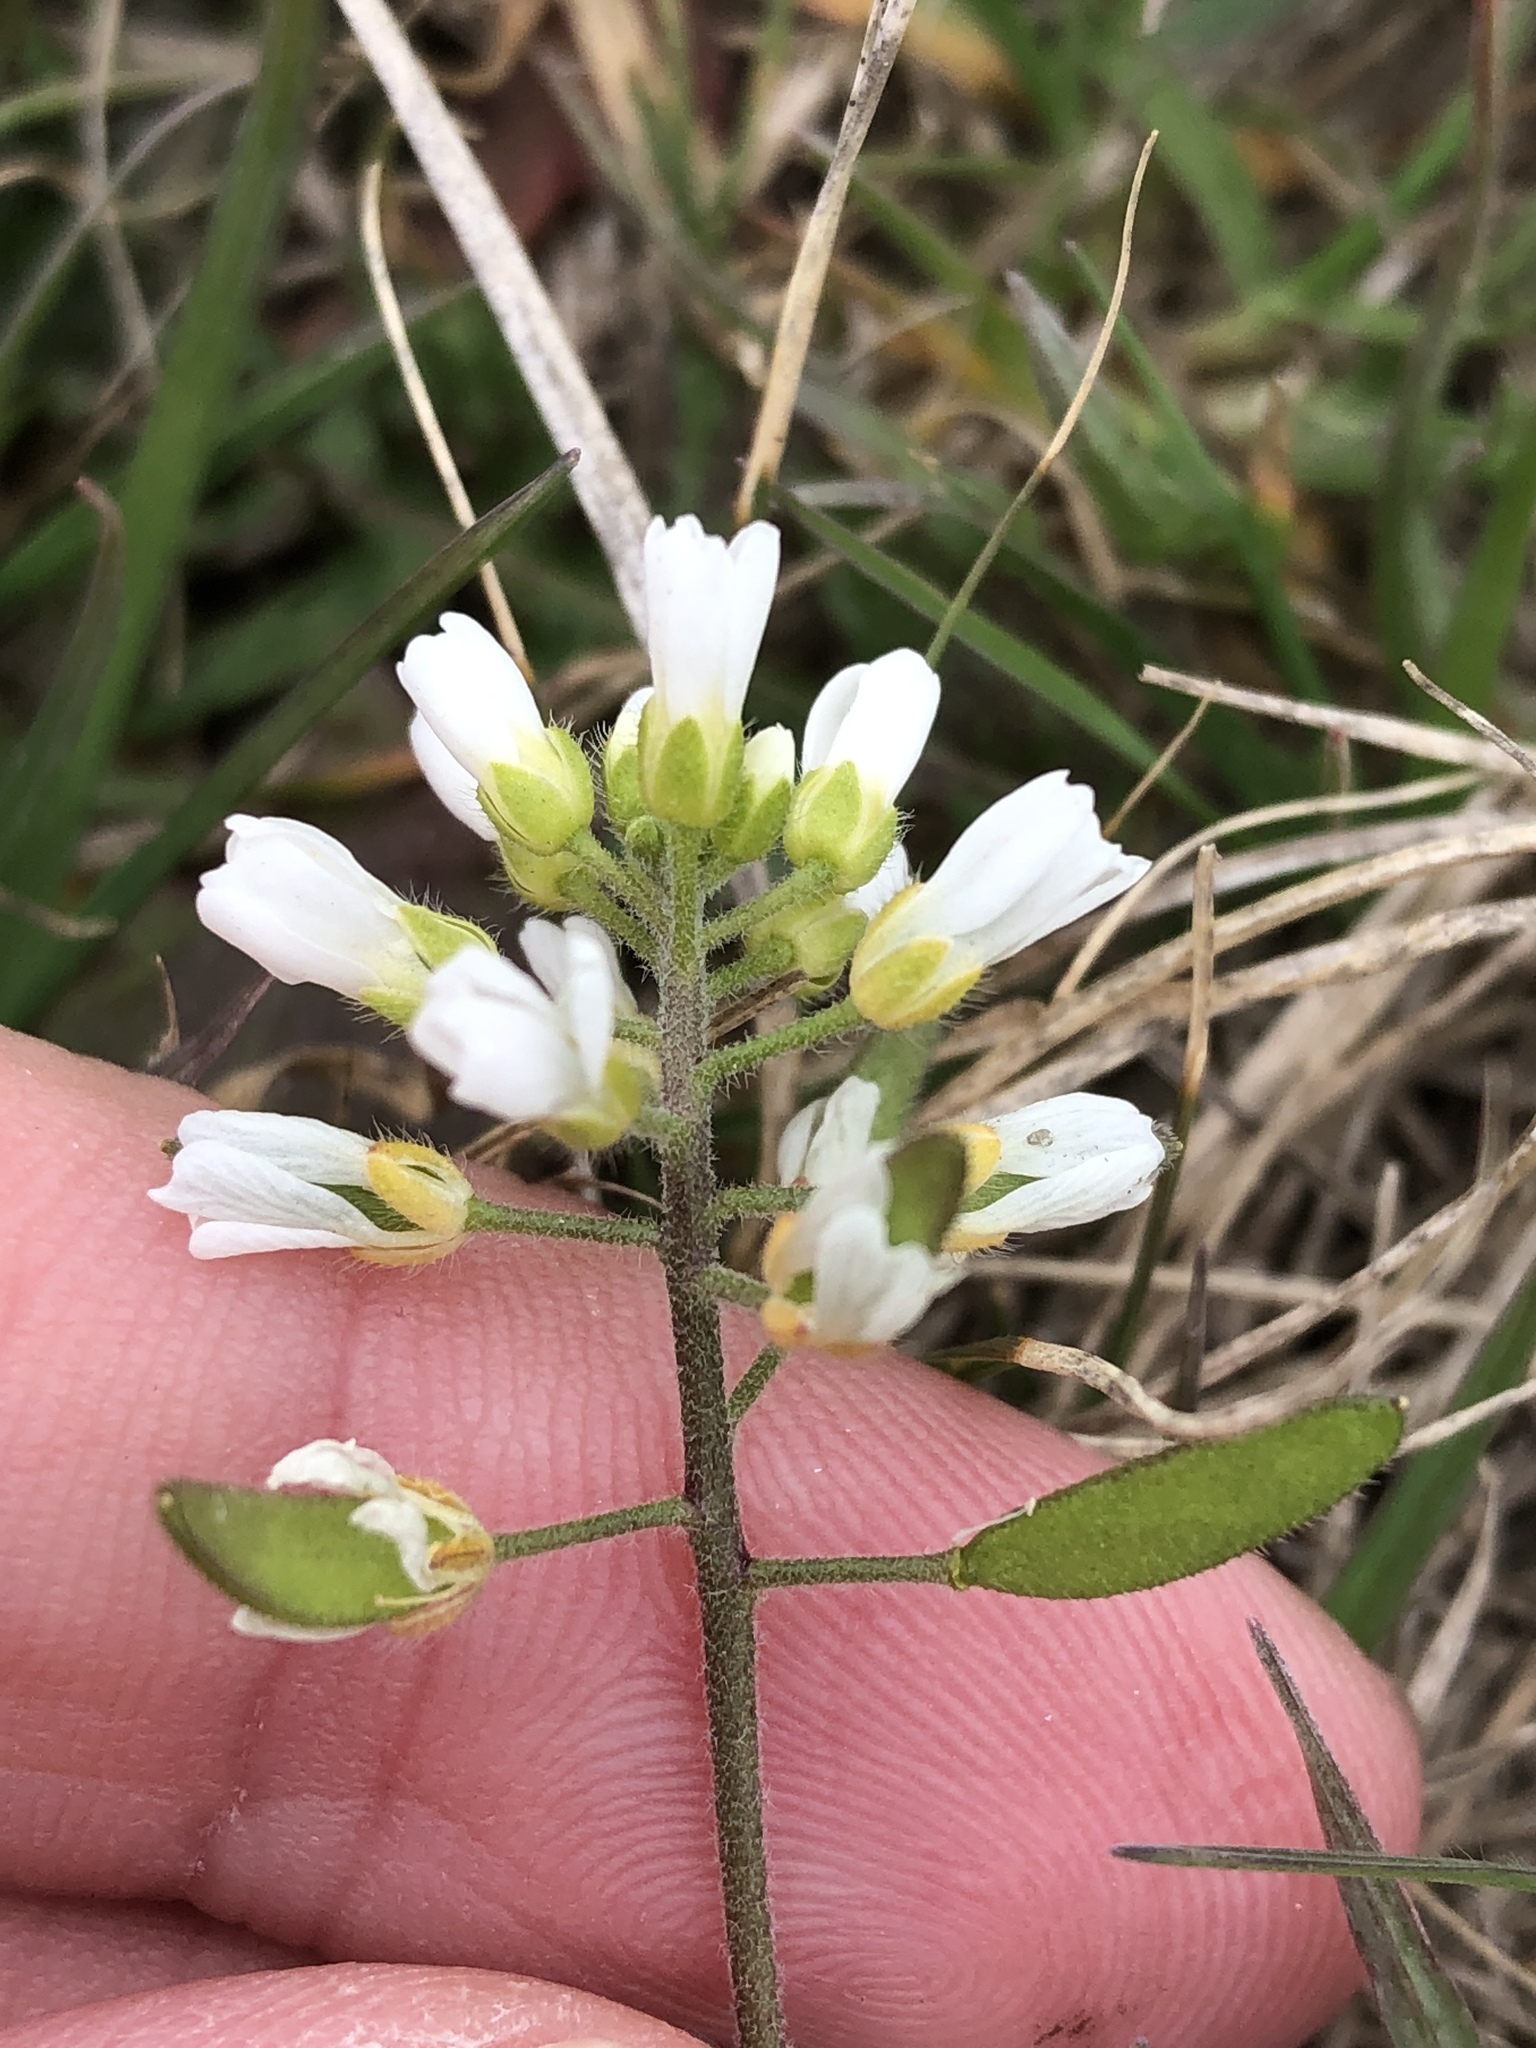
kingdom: Plantae
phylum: Tracheophyta
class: Magnoliopsida
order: Brassicales
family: Brassicaceae
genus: Tomostima
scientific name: Tomostima cuneifolia
